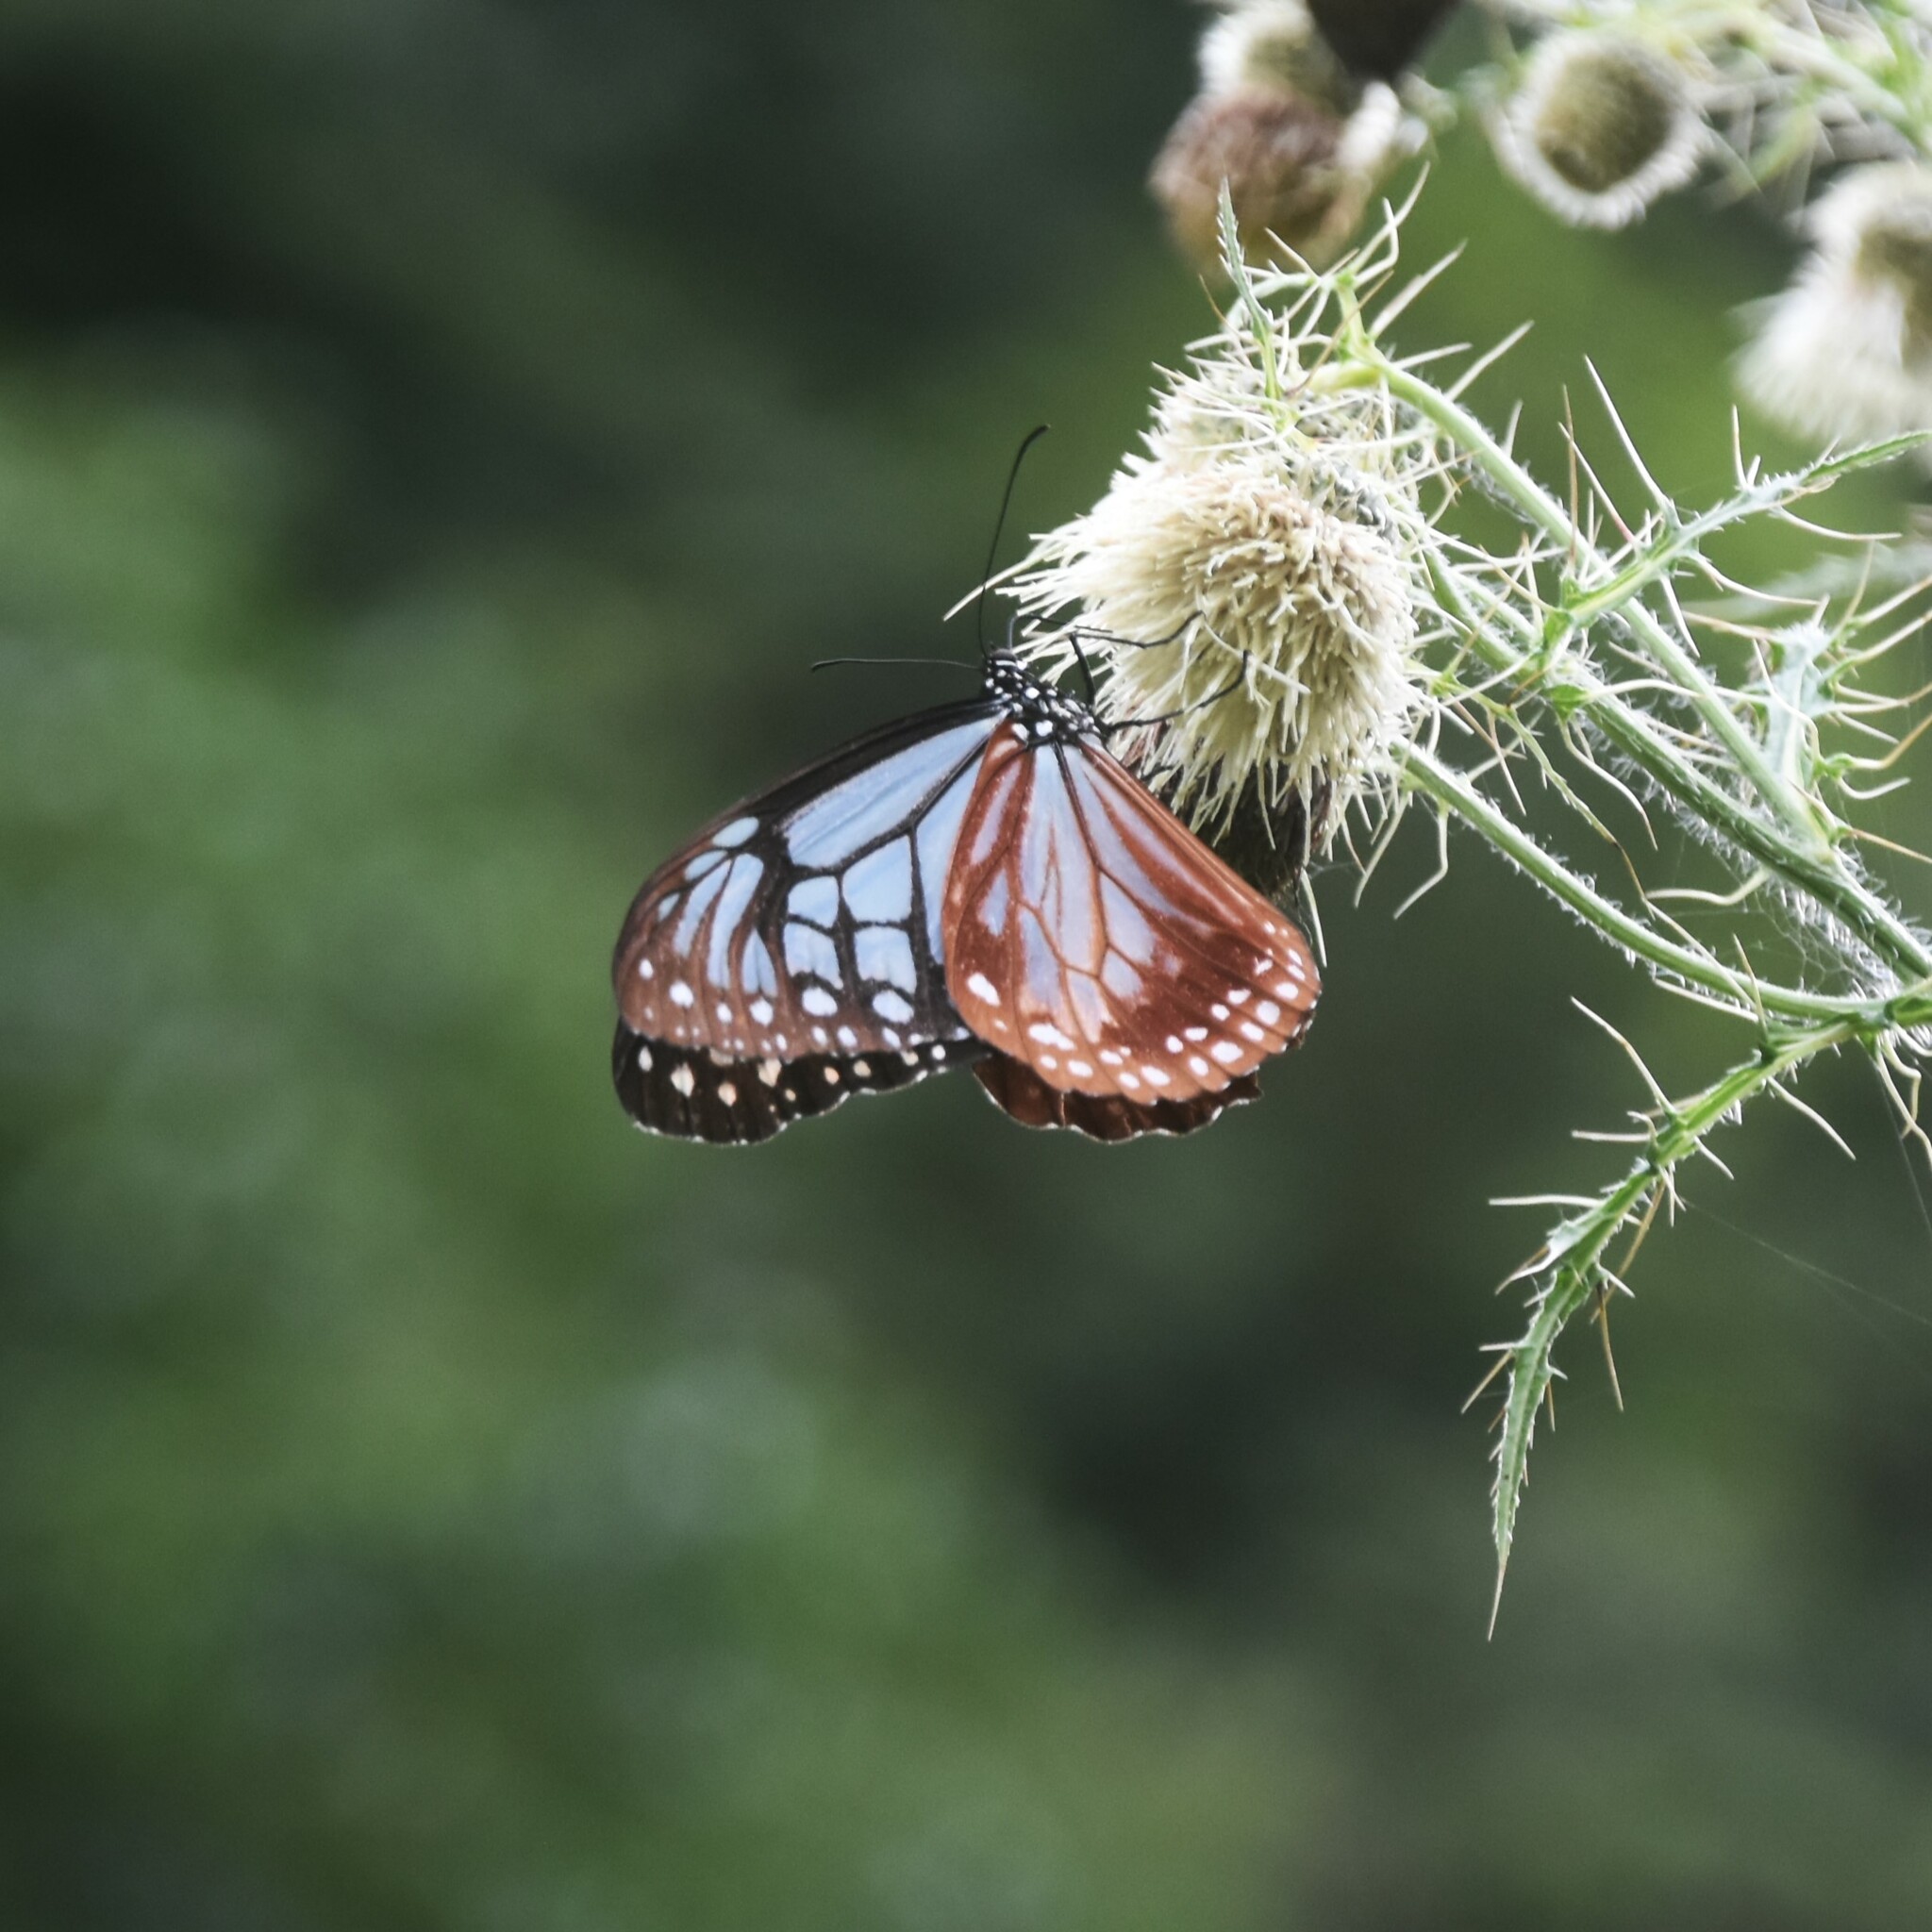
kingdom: Animalia
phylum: Arthropoda
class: Insecta
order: Lepidoptera
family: Nymphalidae
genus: Parantica
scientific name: Parantica sita
